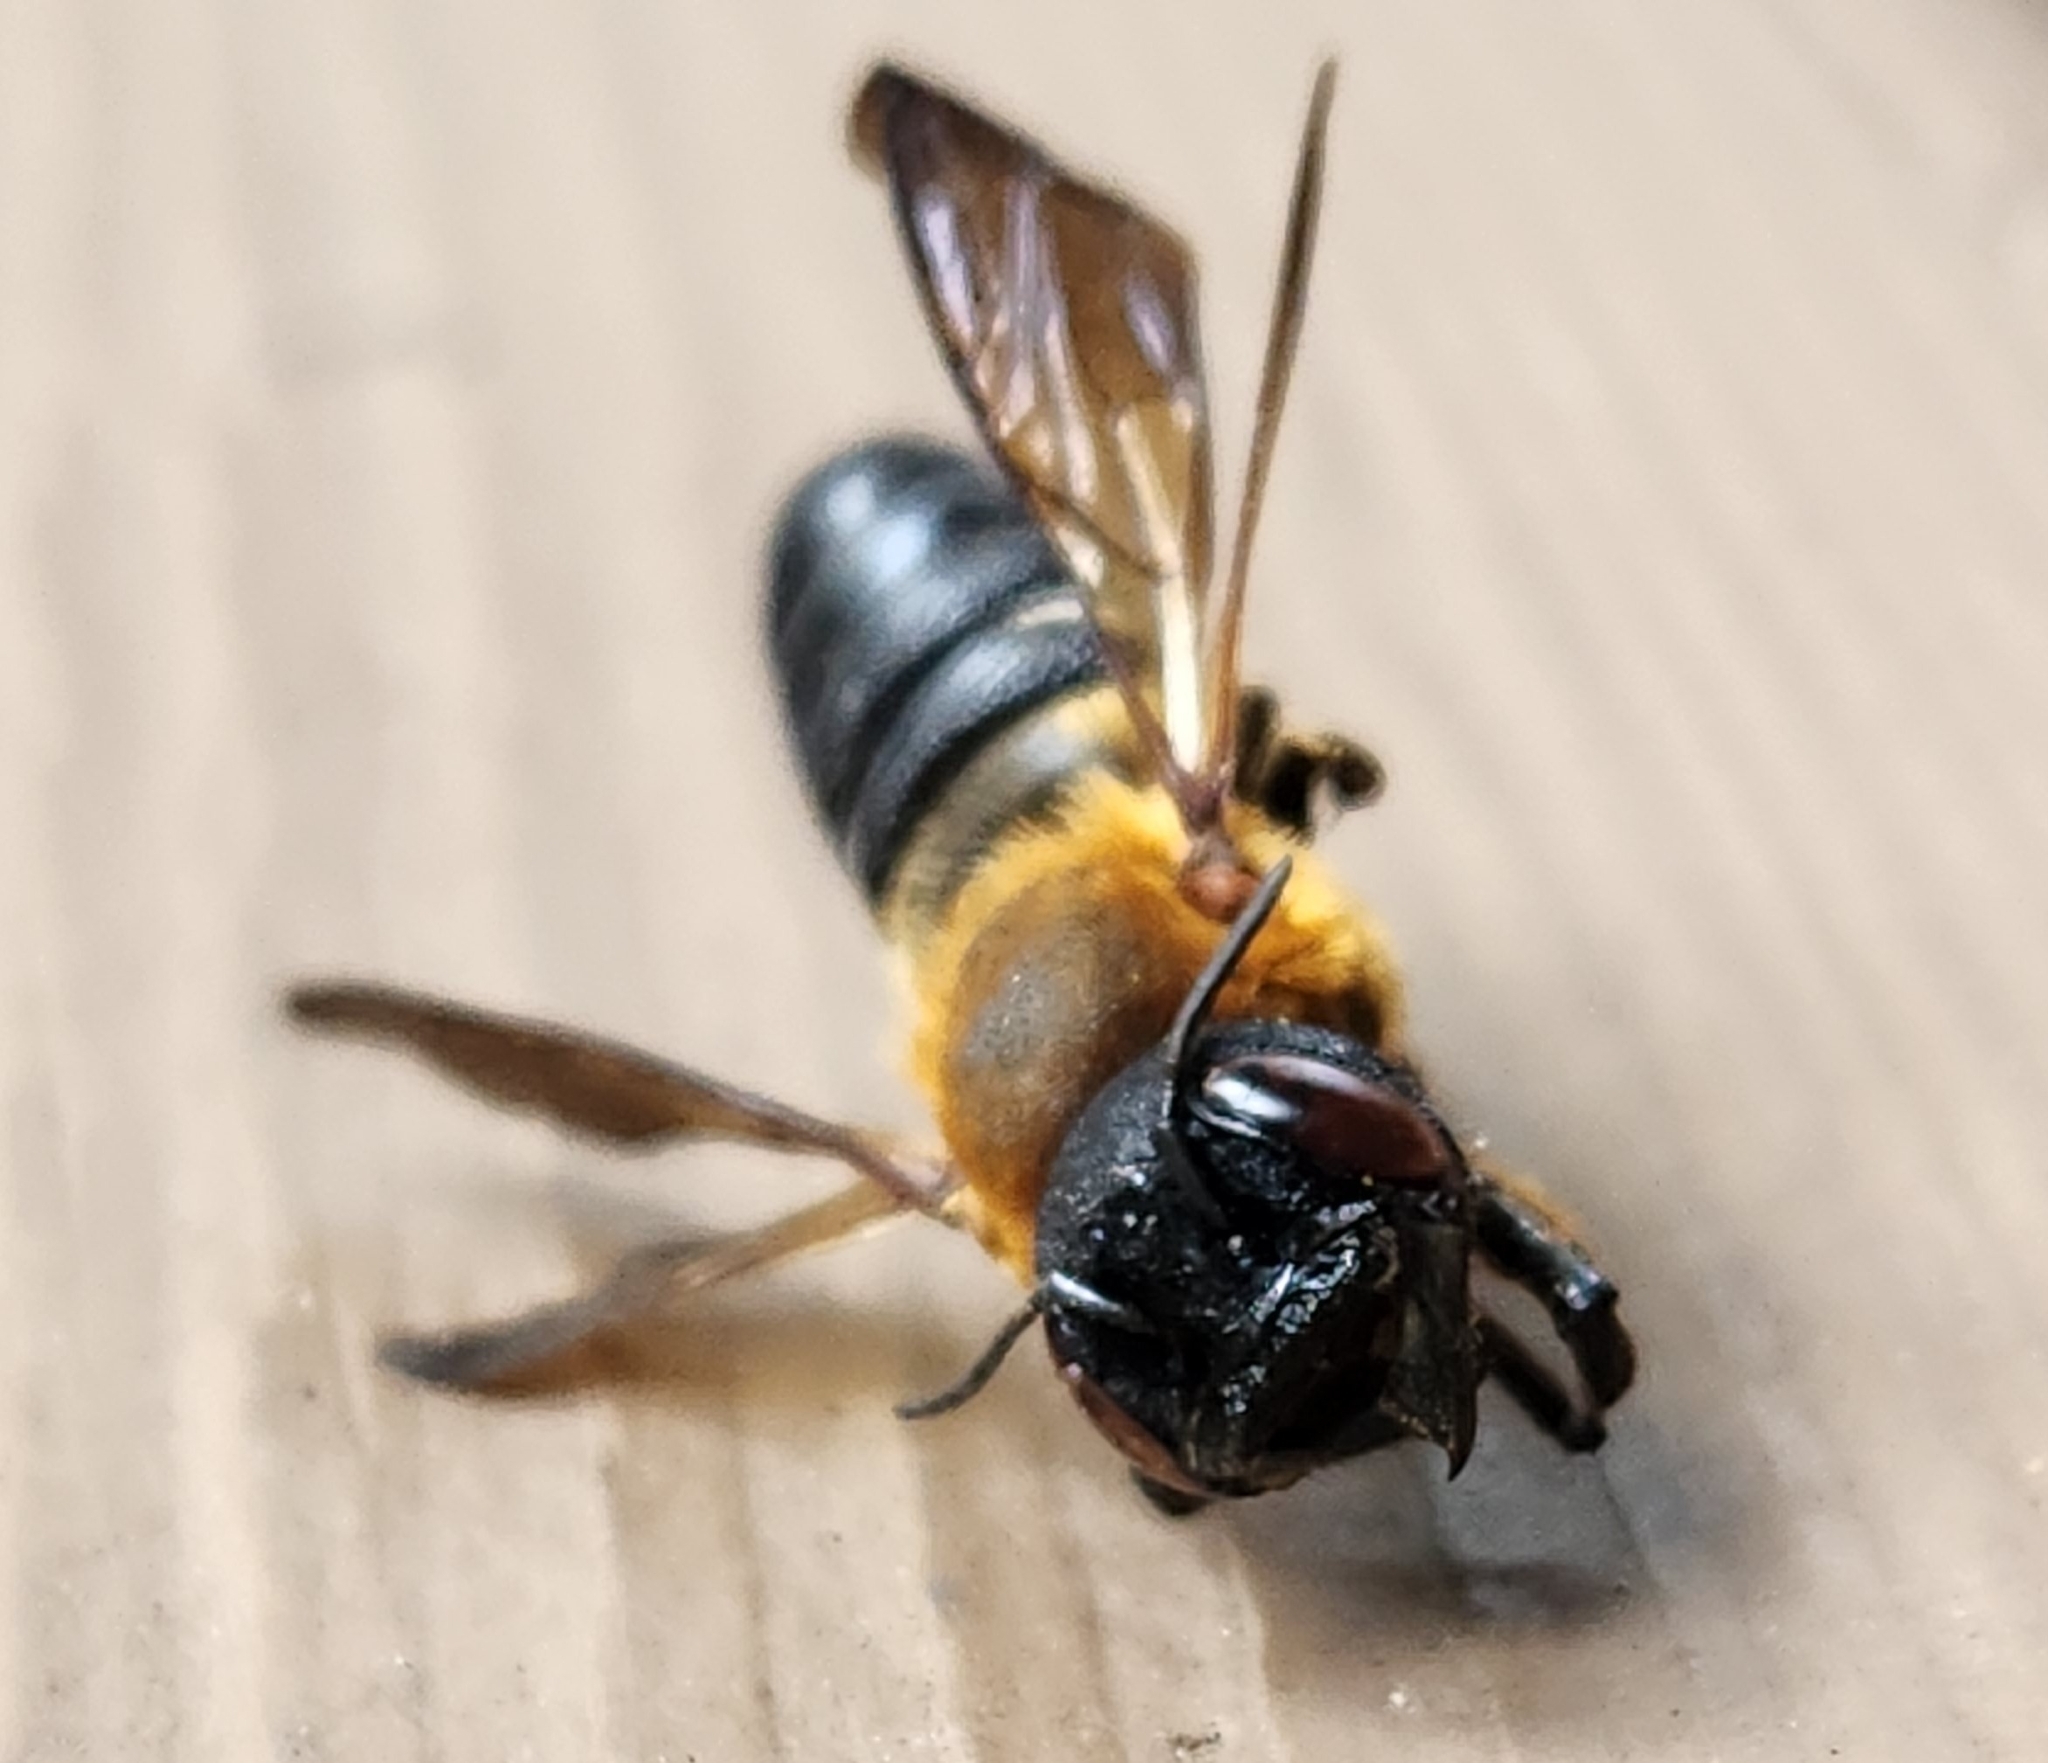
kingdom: Animalia
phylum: Arthropoda
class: Insecta
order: Hymenoptera
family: Megachilidae
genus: Megachile
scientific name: Megachile sculpturalis
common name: Sculptured resin bee
